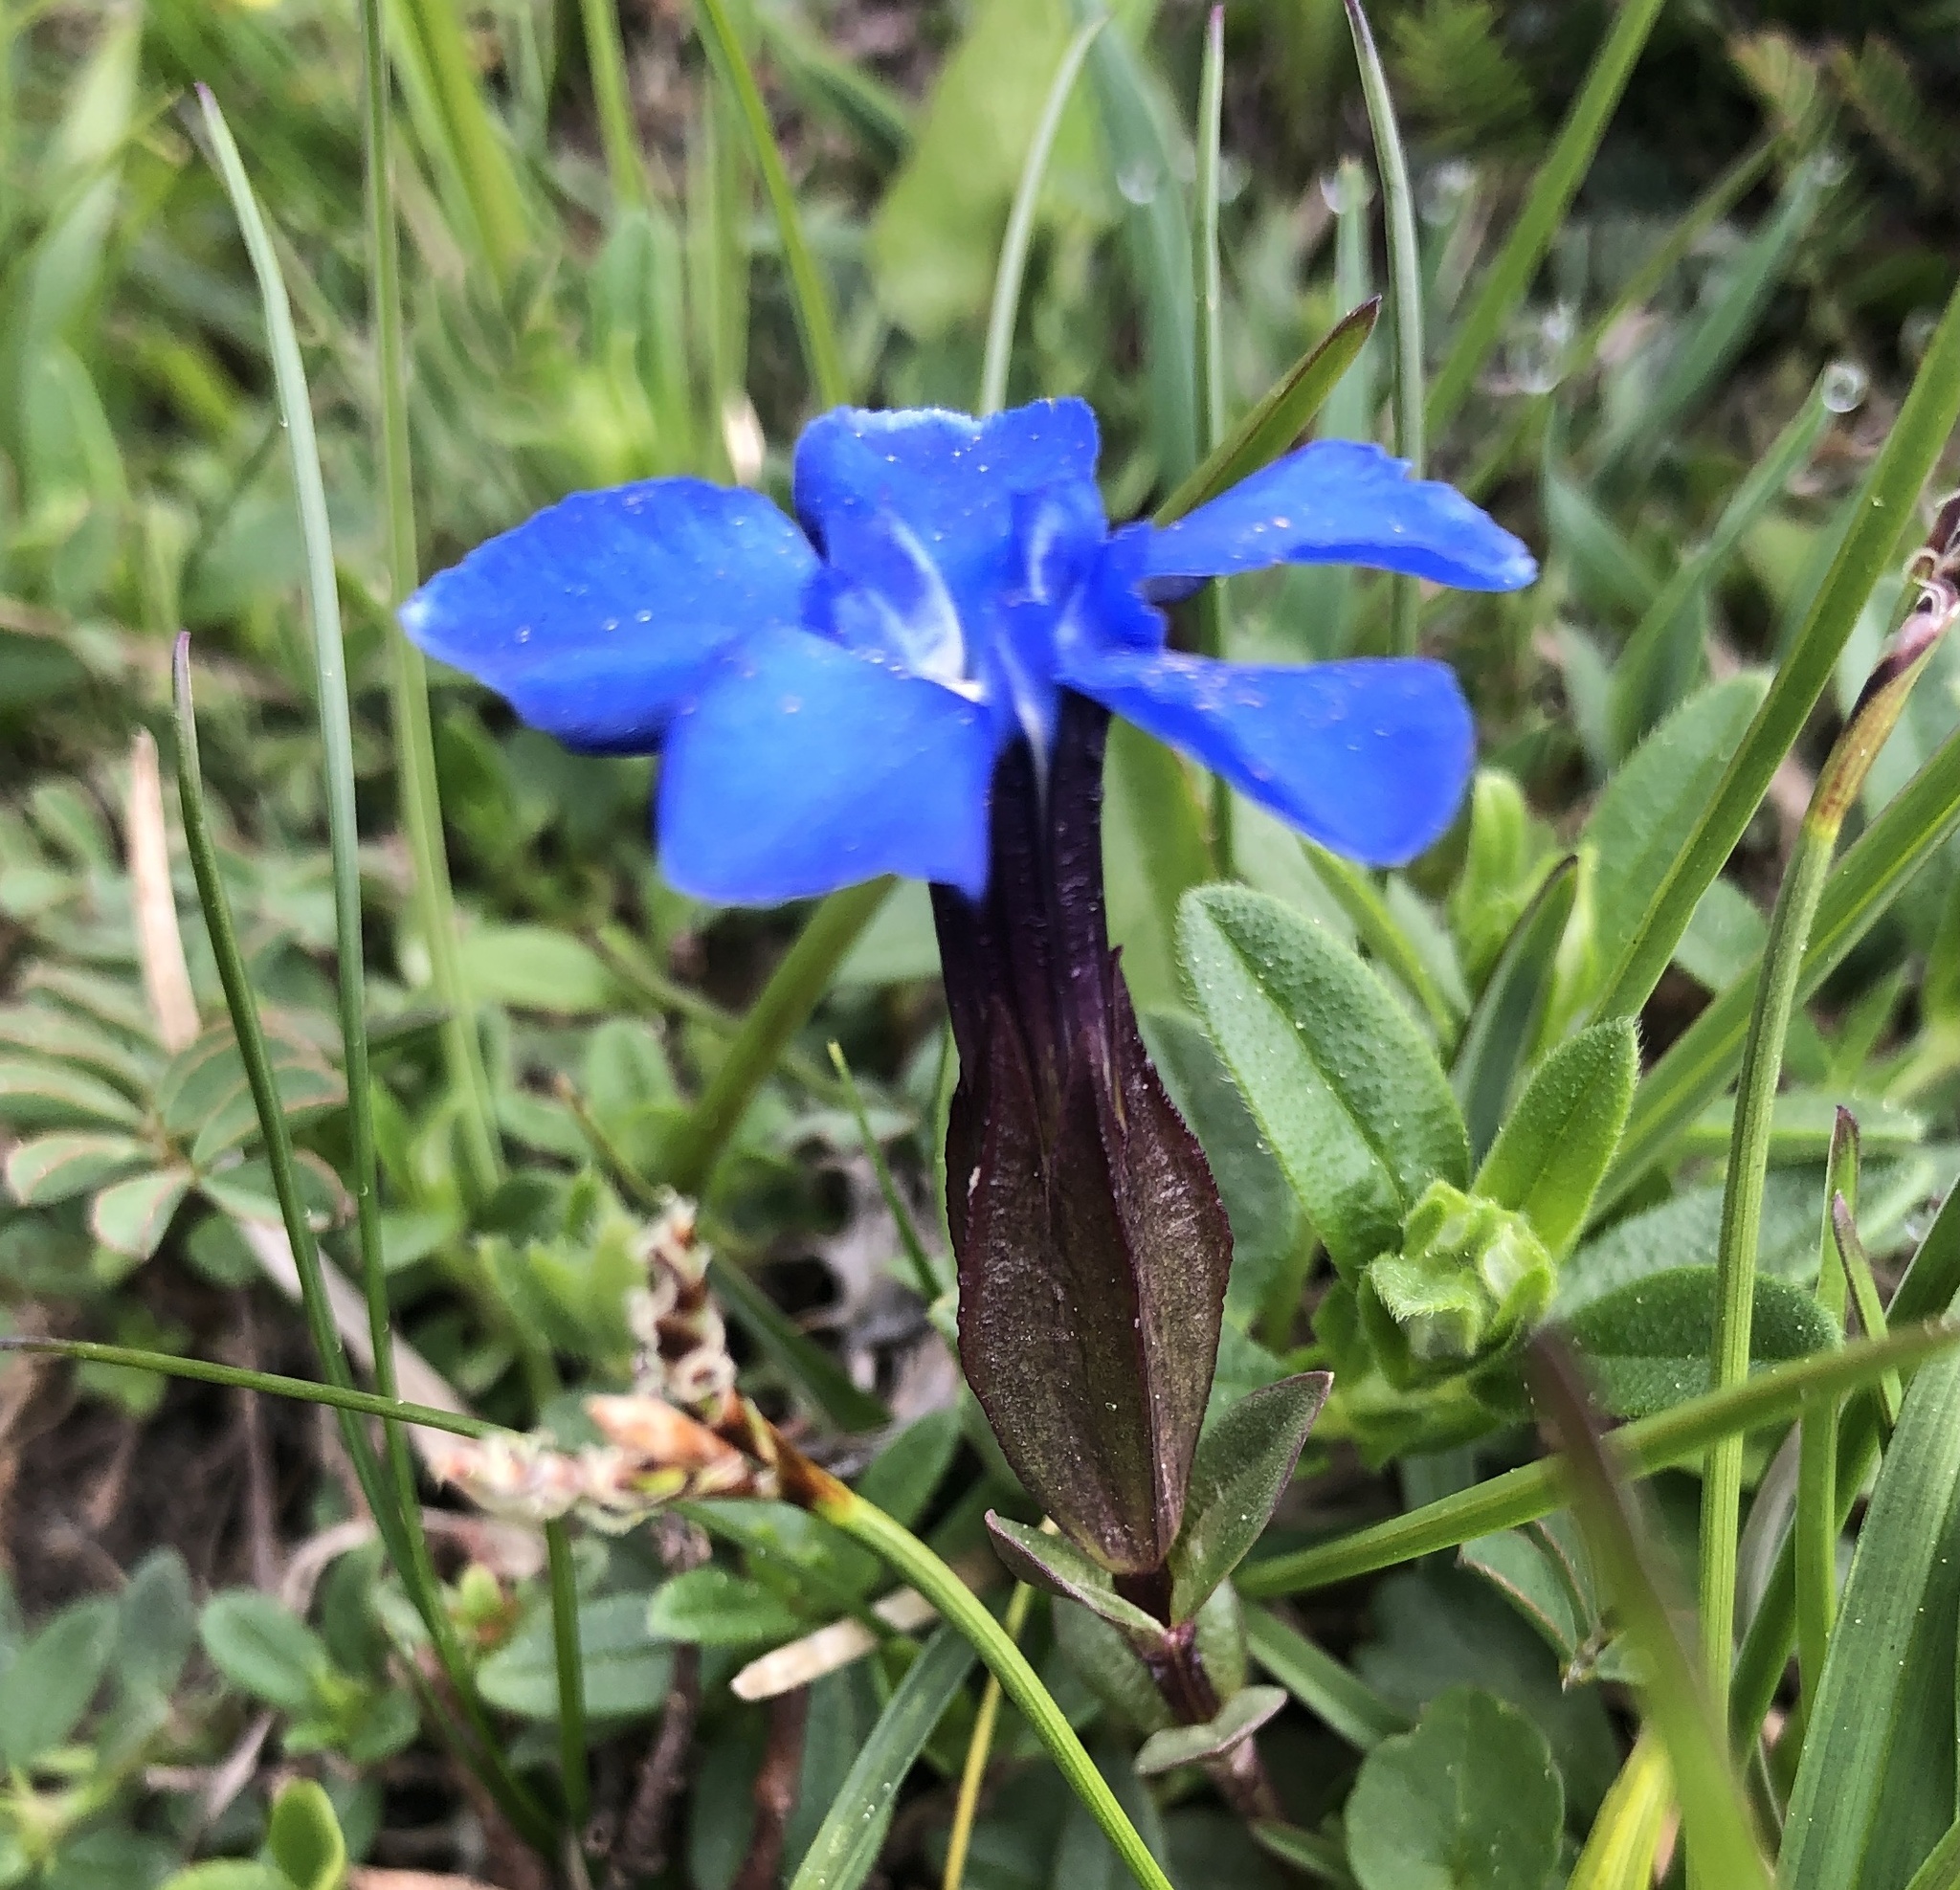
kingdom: Plantae
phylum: Tracheophyta
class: Magnoliopsida
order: Gentianales
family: Gentianaceae
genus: Gentiana
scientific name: Gentiana verna
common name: Spring gentian
